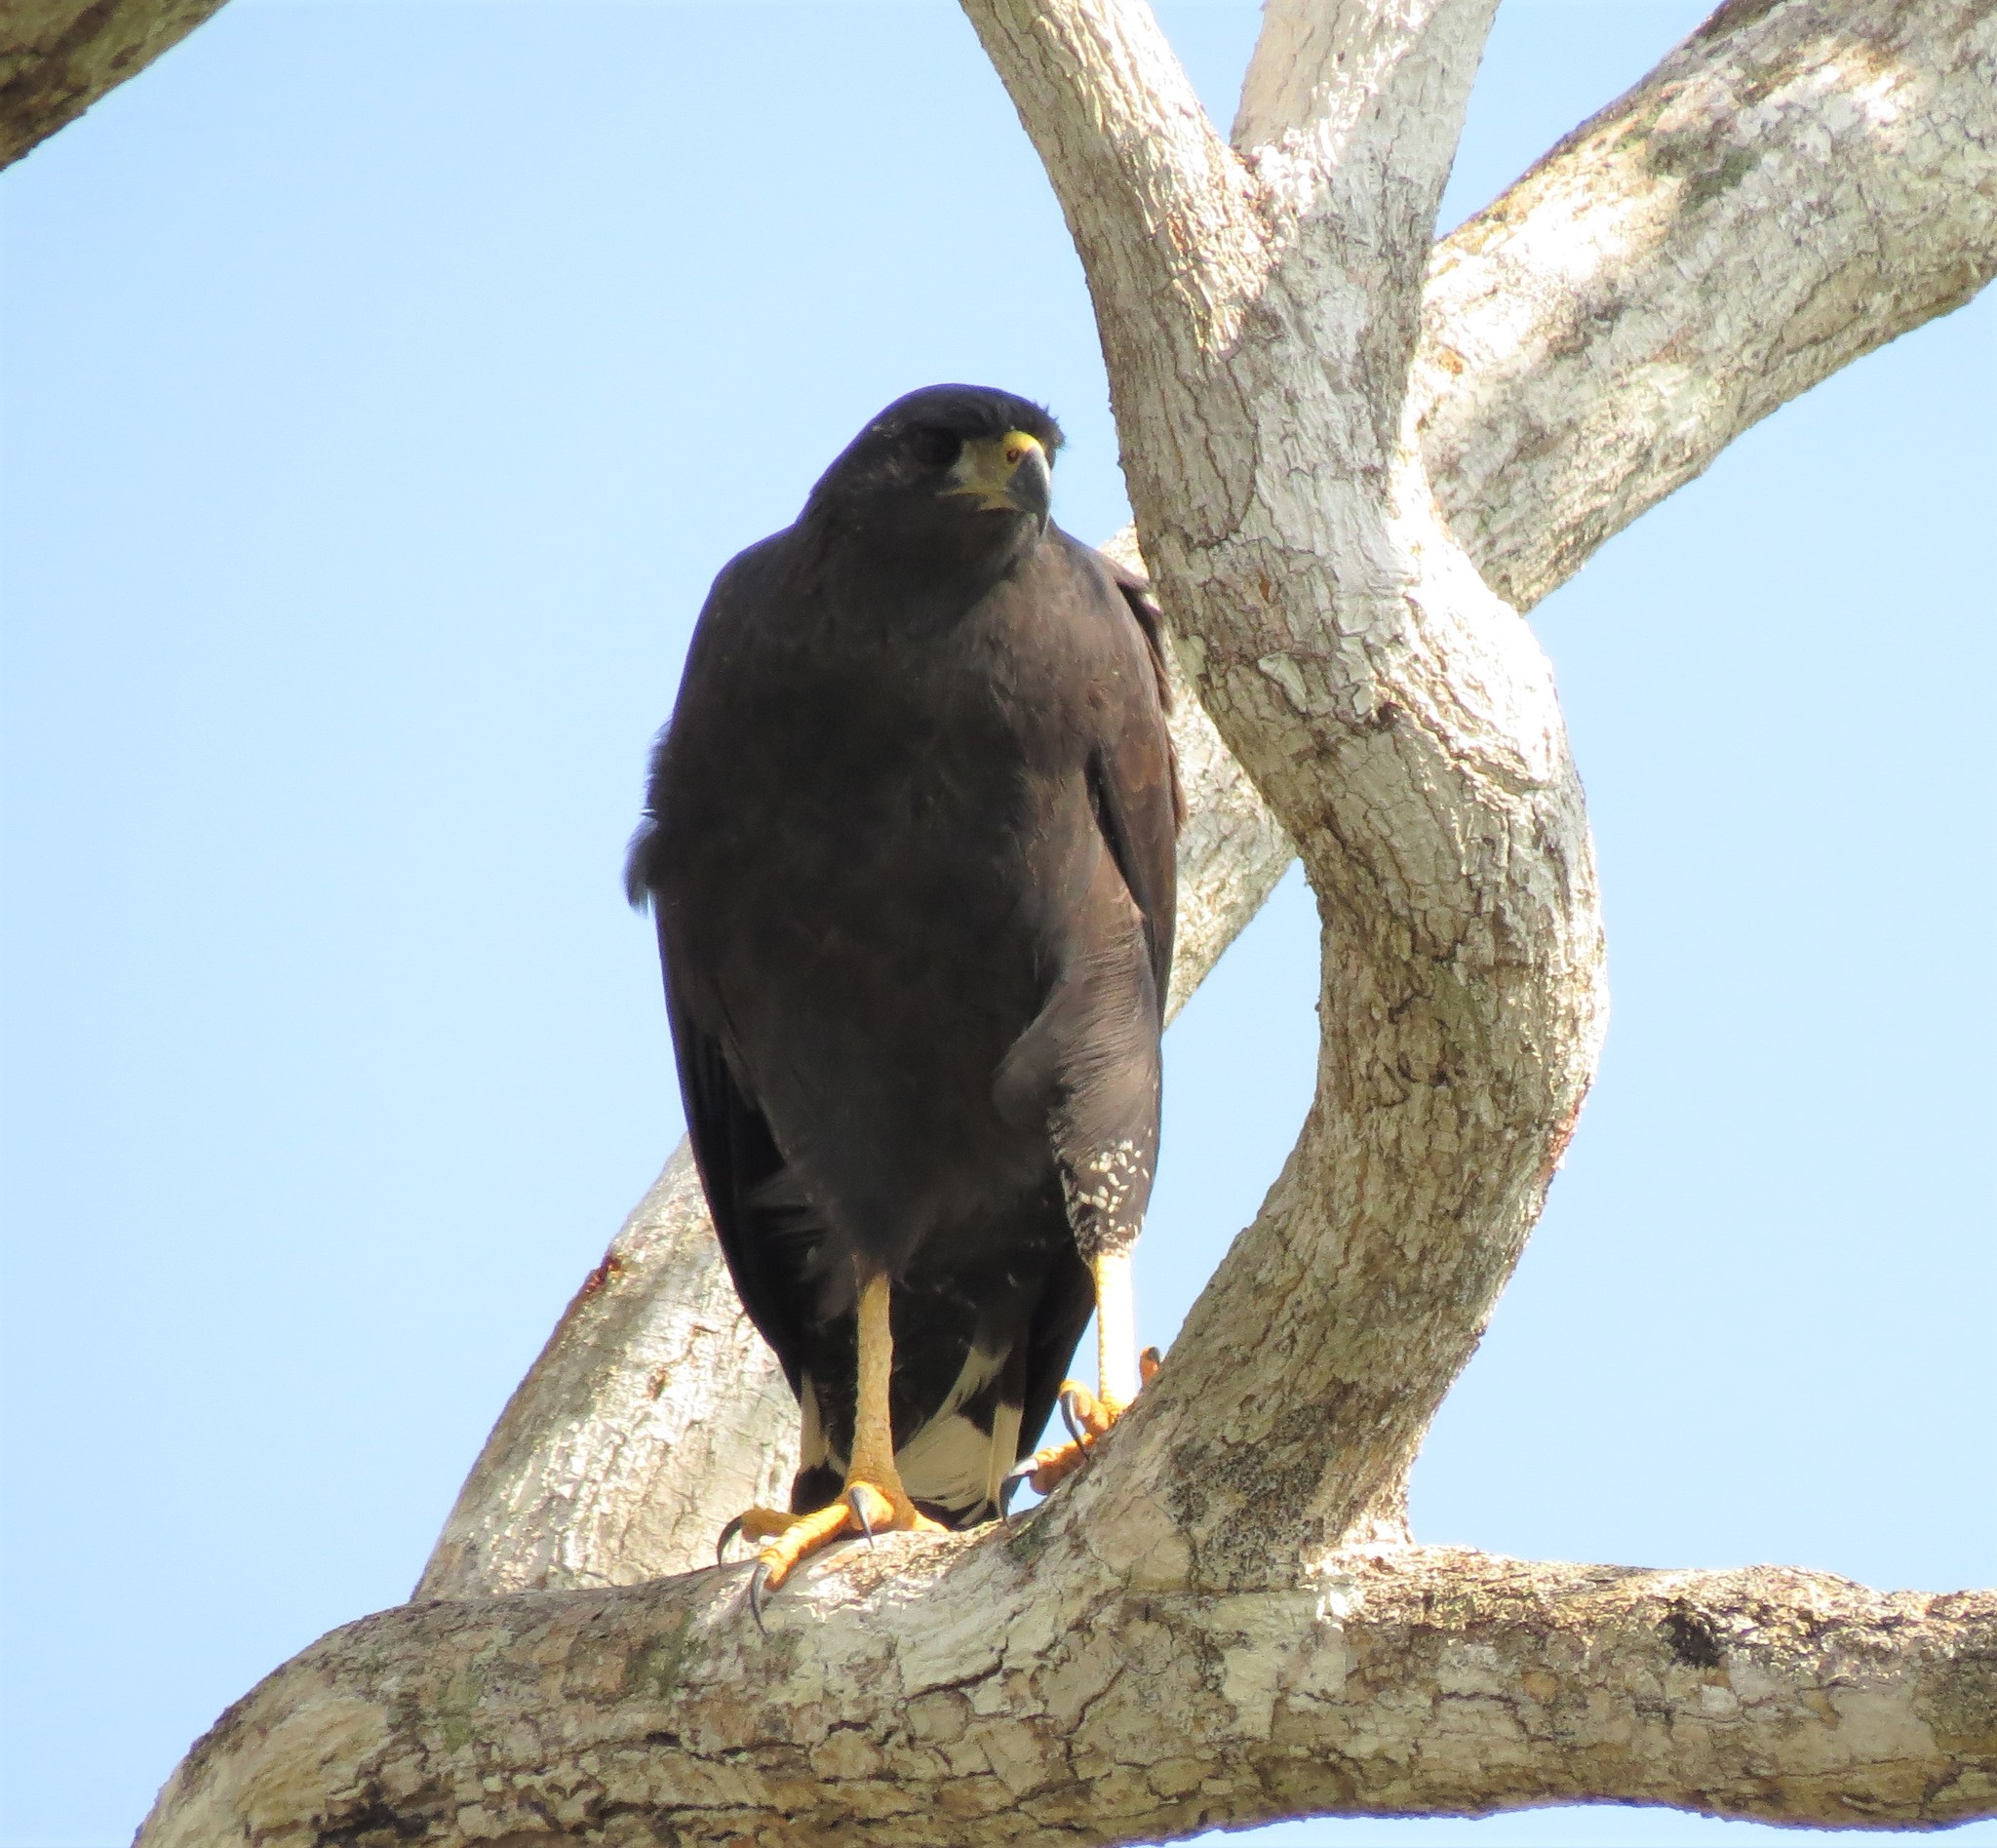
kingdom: Animalia
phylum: Chordata
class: Aves
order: Accipitriformes
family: Accipitridae
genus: Buteogallus
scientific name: Buteogallus urubitinga
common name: Great black hawk
